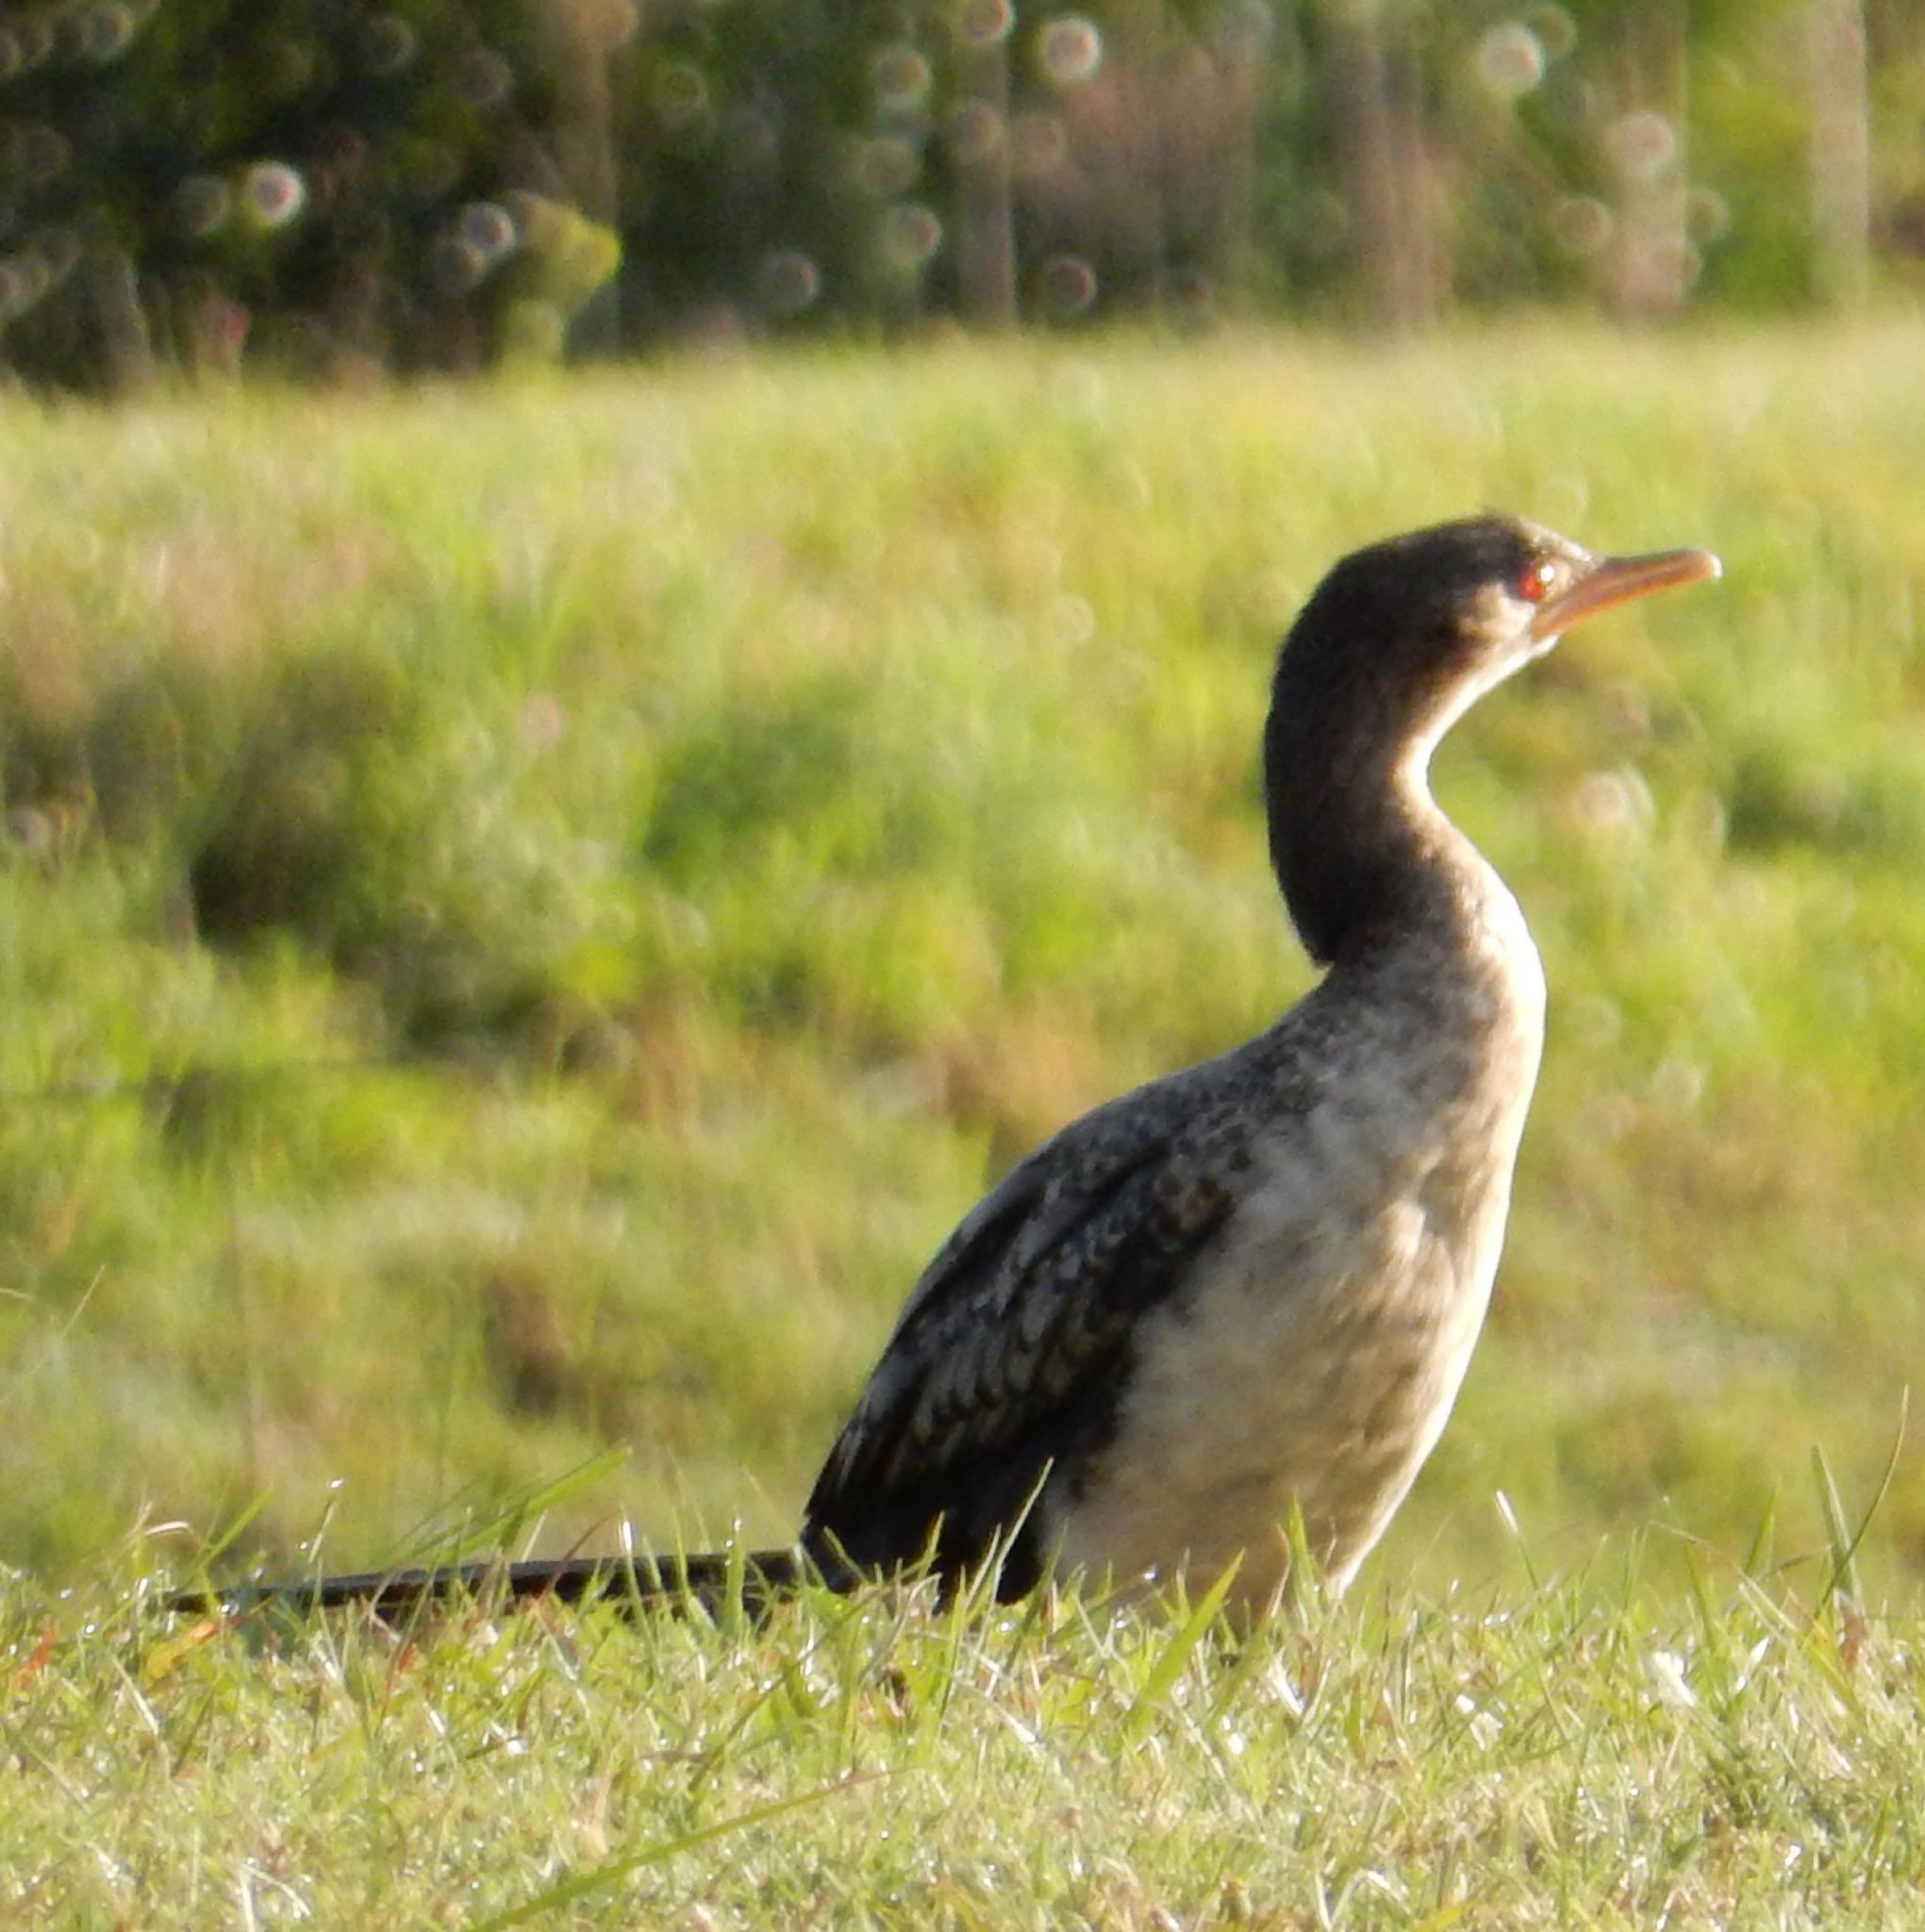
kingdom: Animalia
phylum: Chordata
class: Aves
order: Suliformes
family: Phalacrocoracidae
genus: Microcarbo
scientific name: Microcarbo africanus
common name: Long-tailed cormorant
